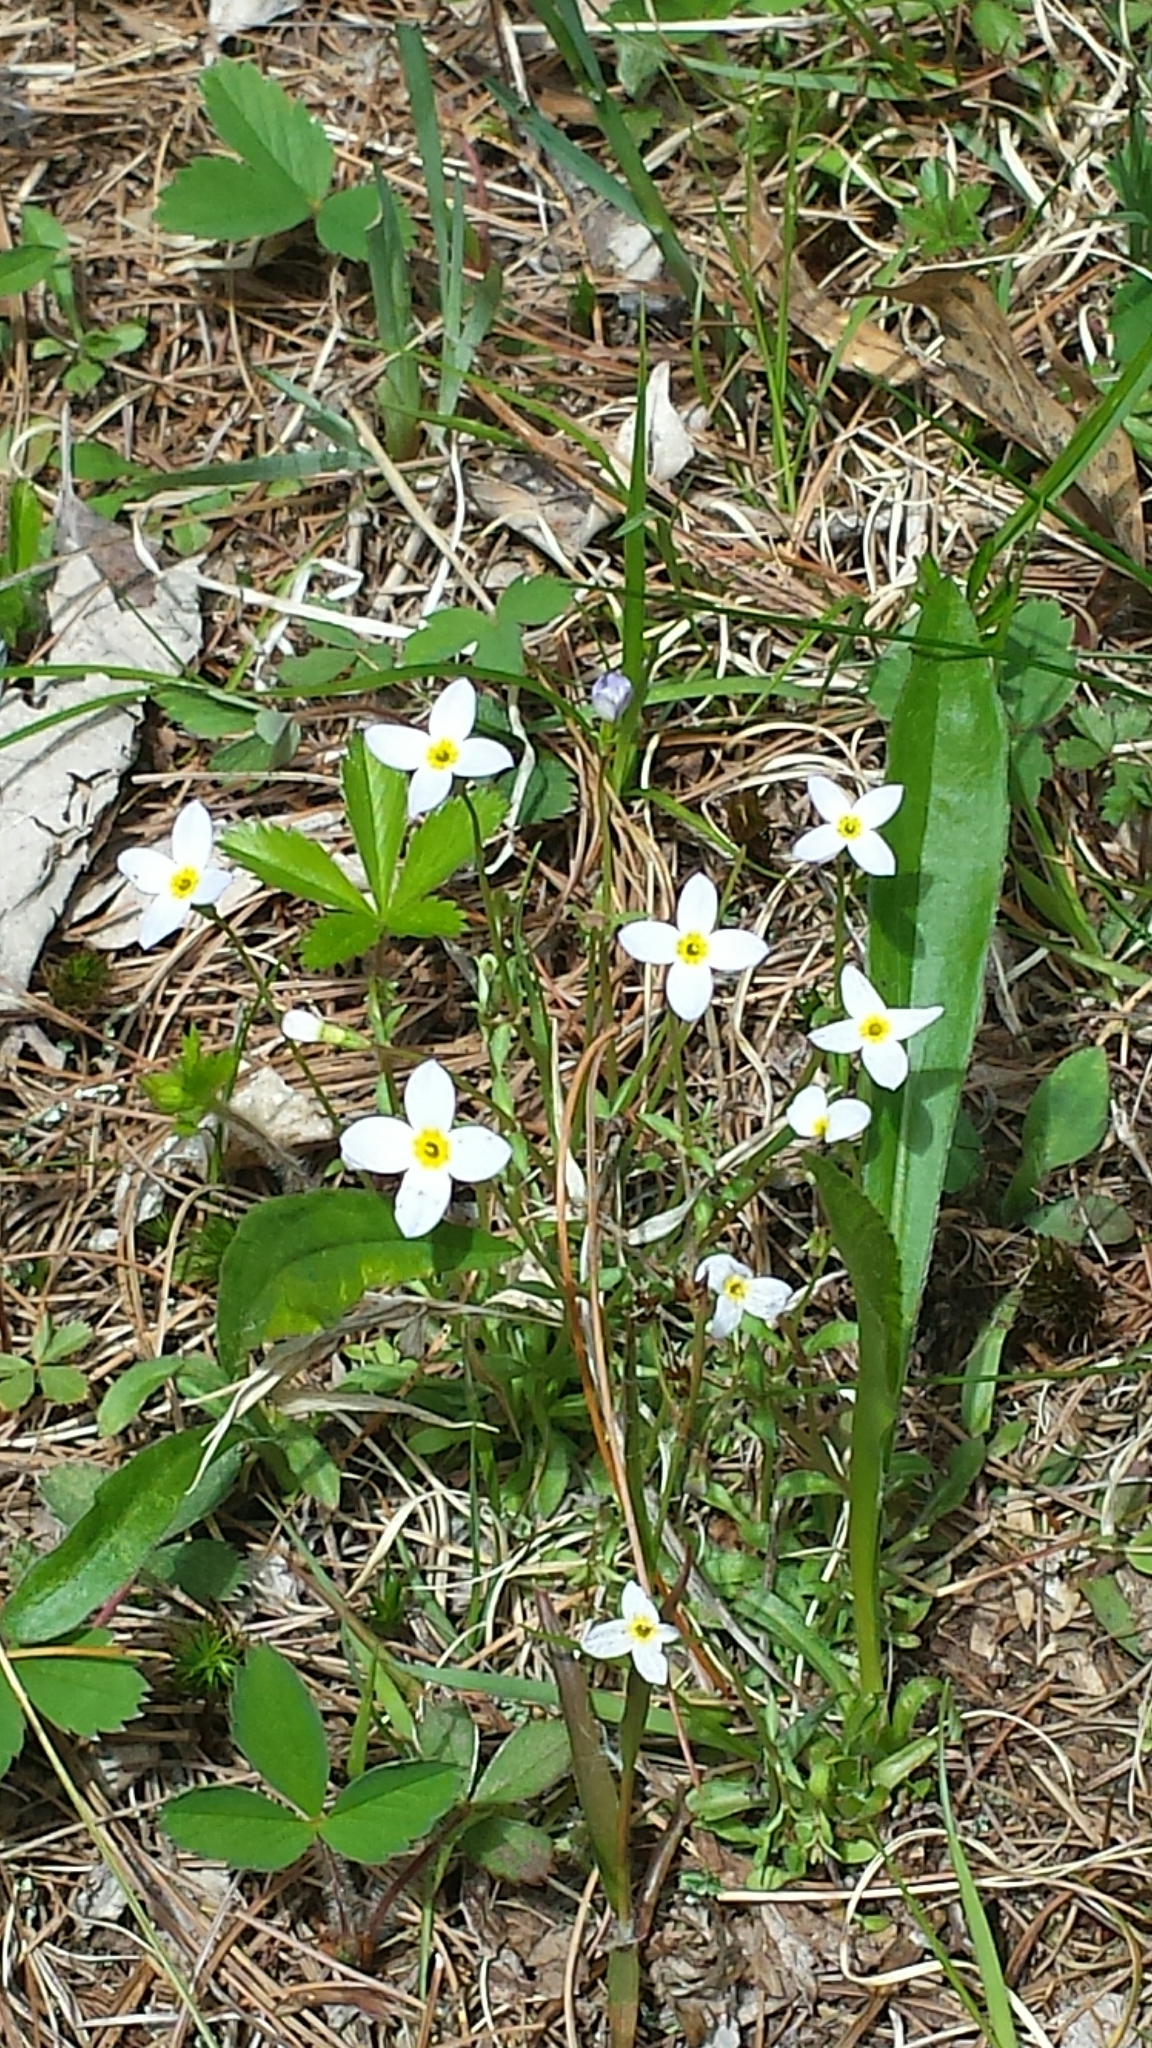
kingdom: Plantae
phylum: Tracheophyta
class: Magnoliopsida
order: Gentianales
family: Rubiaceae
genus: Houstonia
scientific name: Houstonia caerulea
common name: Bluets
